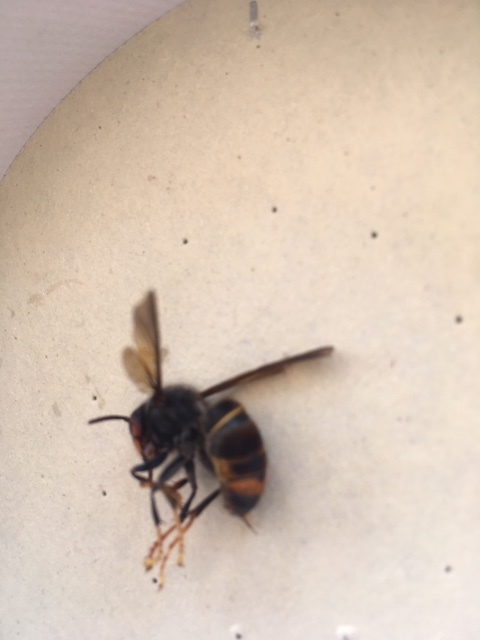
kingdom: Animalia
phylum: Arthropoda
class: Insecta
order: Hymenoptera
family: Vespidae
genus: Vespa
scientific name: Vespa velutina
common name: Asian hornet
